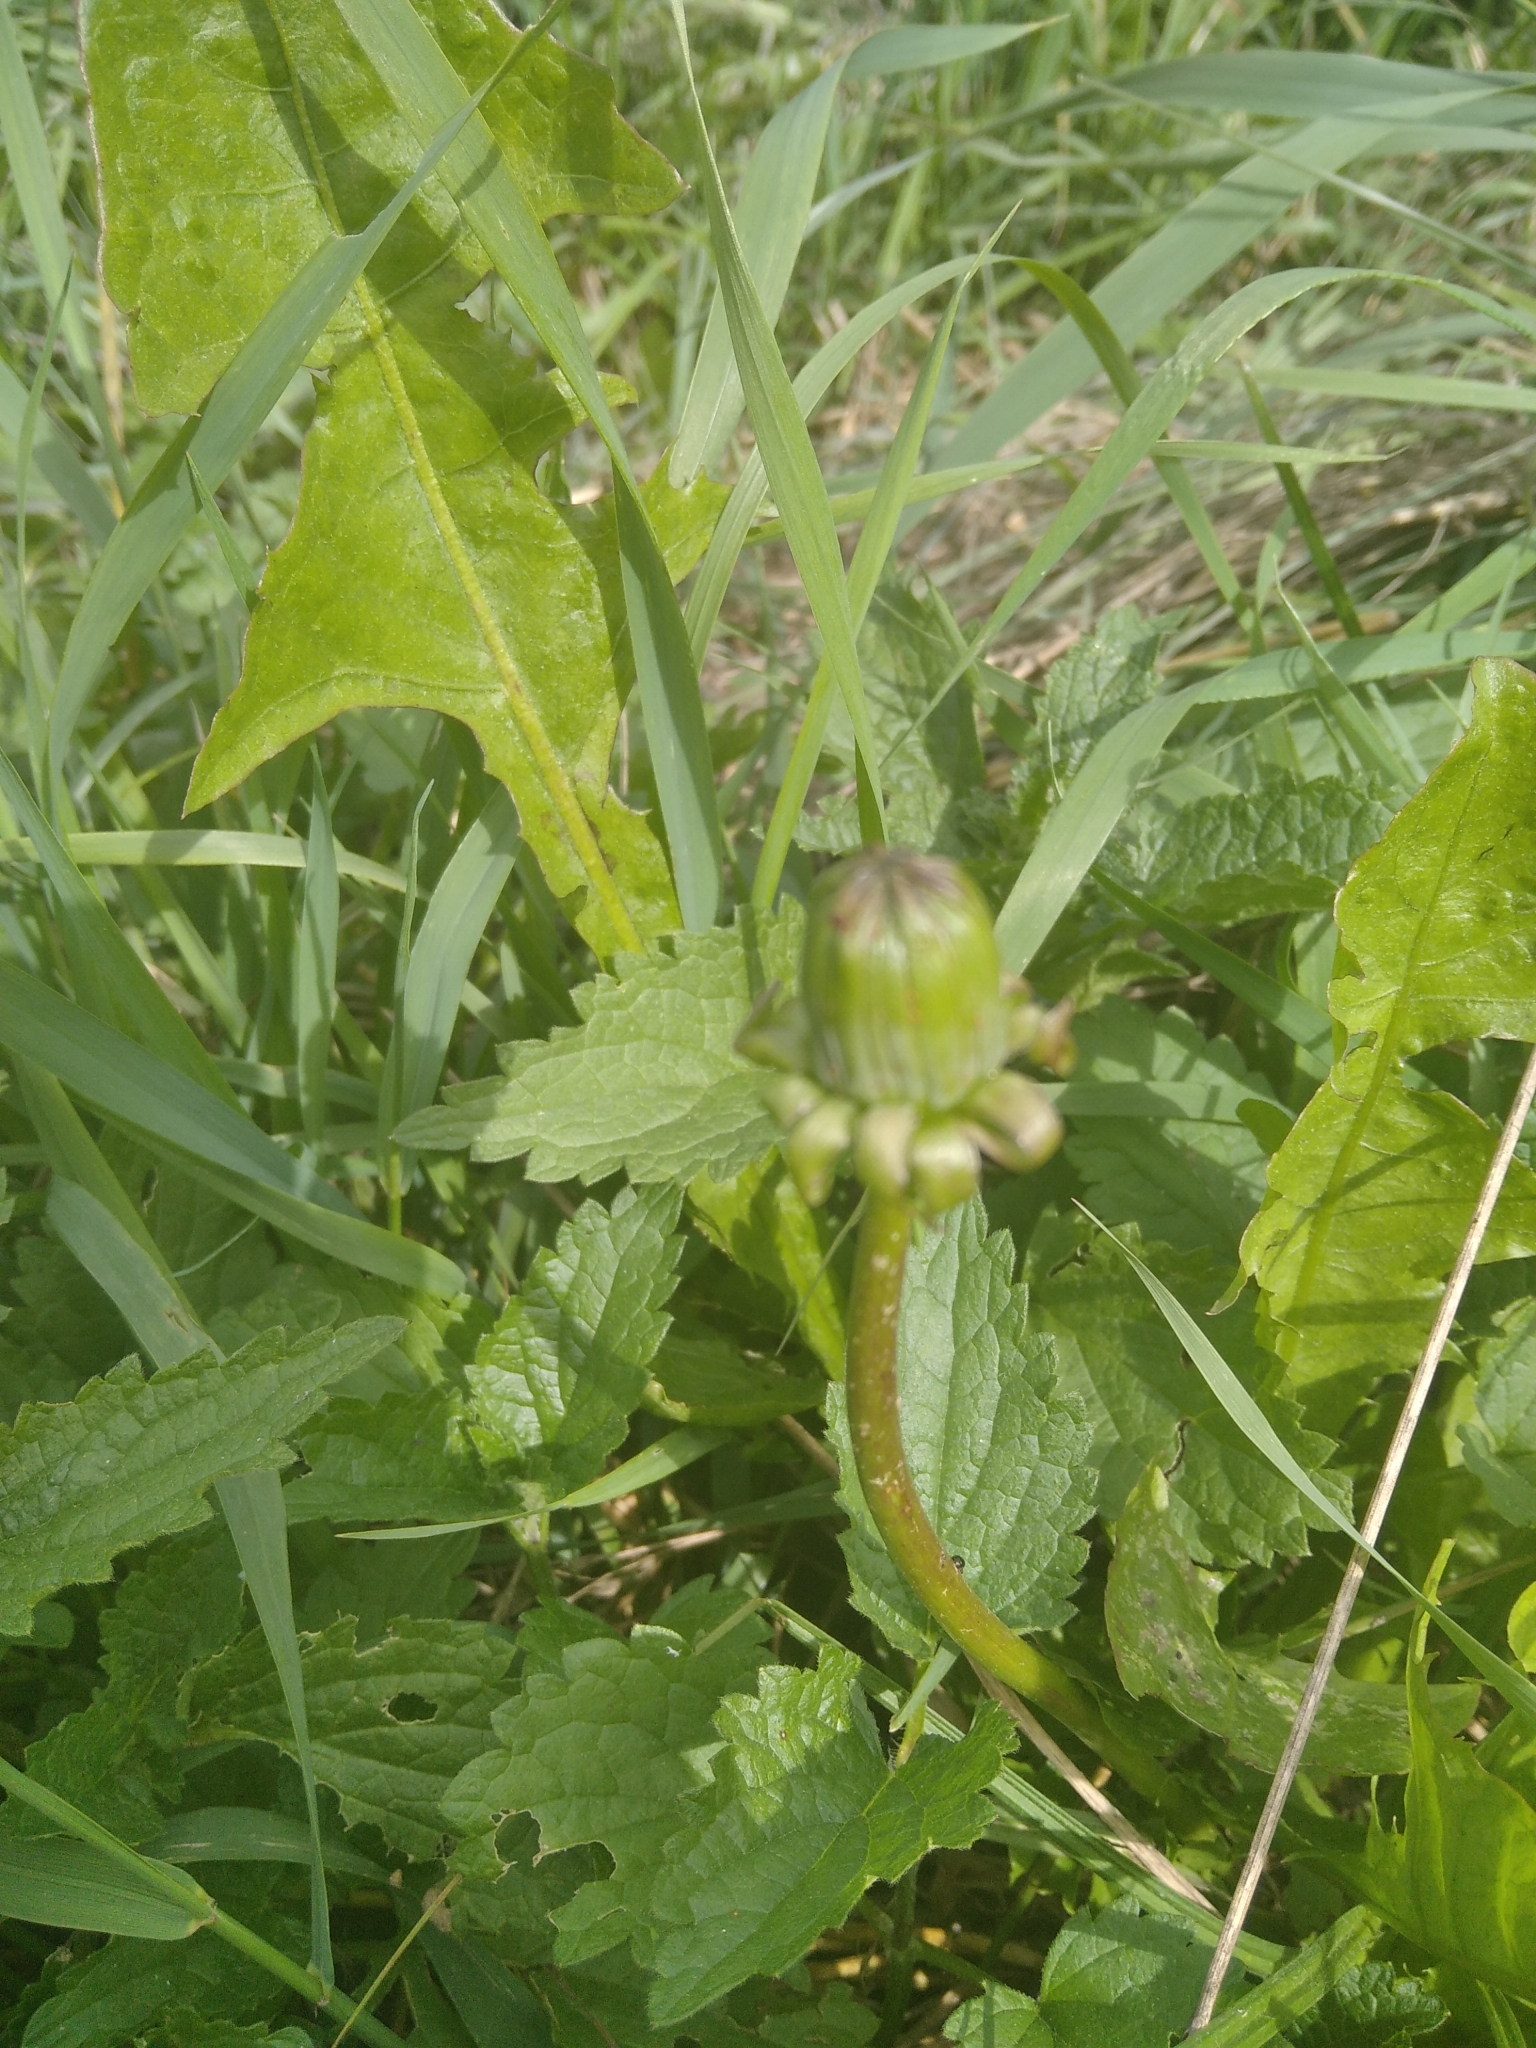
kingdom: Plantae
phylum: Tracheophyta
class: Magnoliopsida
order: Asterales
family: Asteraceae
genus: Taraxacum
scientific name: Taraxacum officinale
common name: Common dandelion
